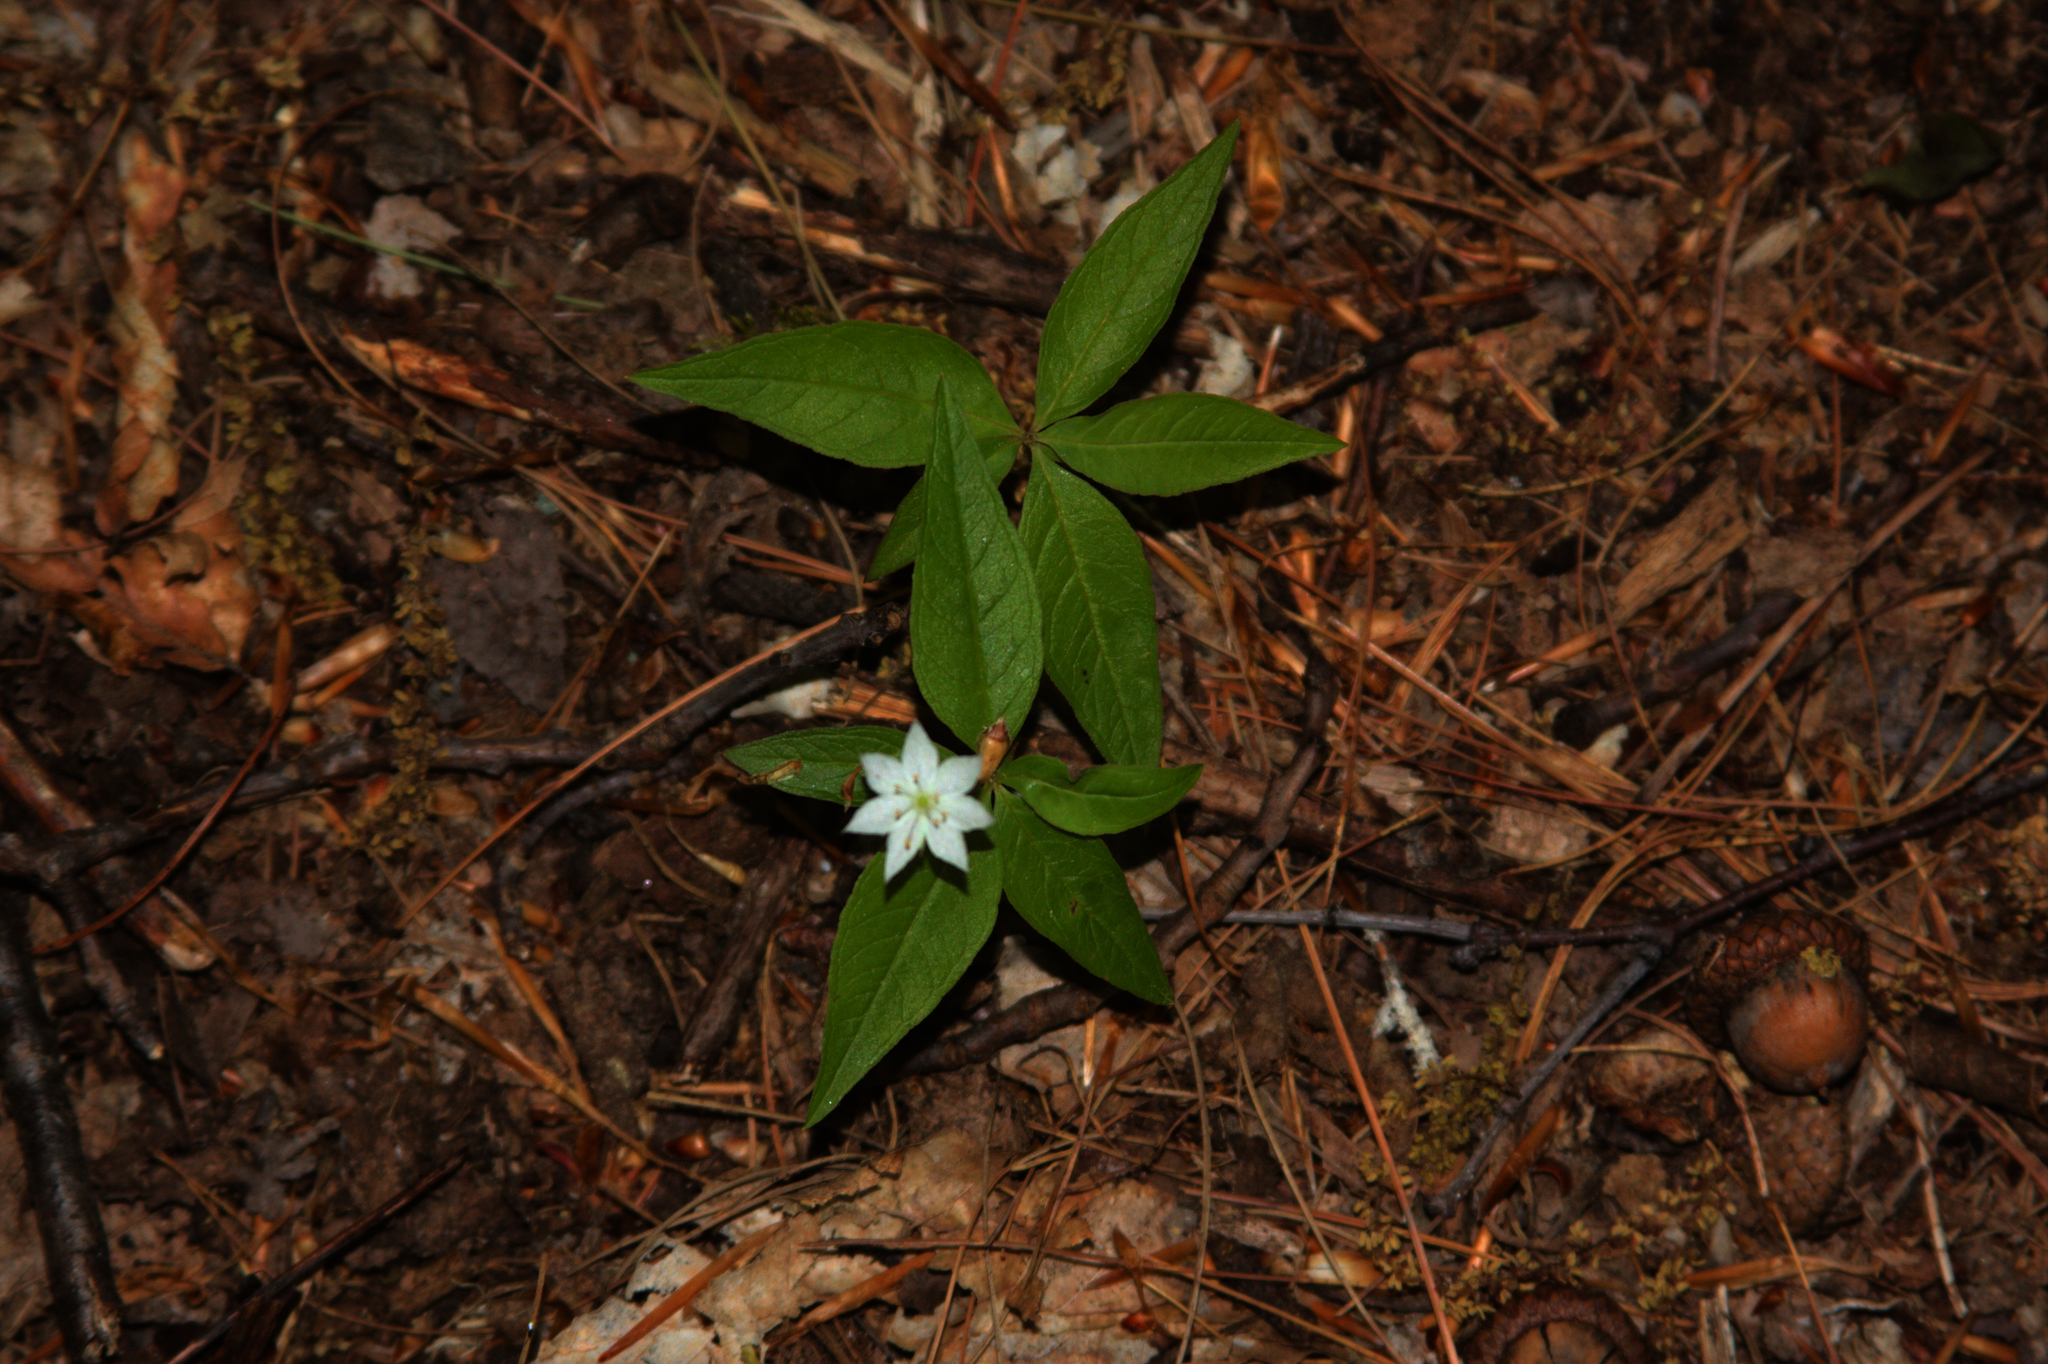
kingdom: Plantae
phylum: Tracheophyta
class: Magnoliopsida
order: Ericales
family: Primulaceae
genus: Lysimachia
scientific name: Lysimachia borealis
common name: American starflower
